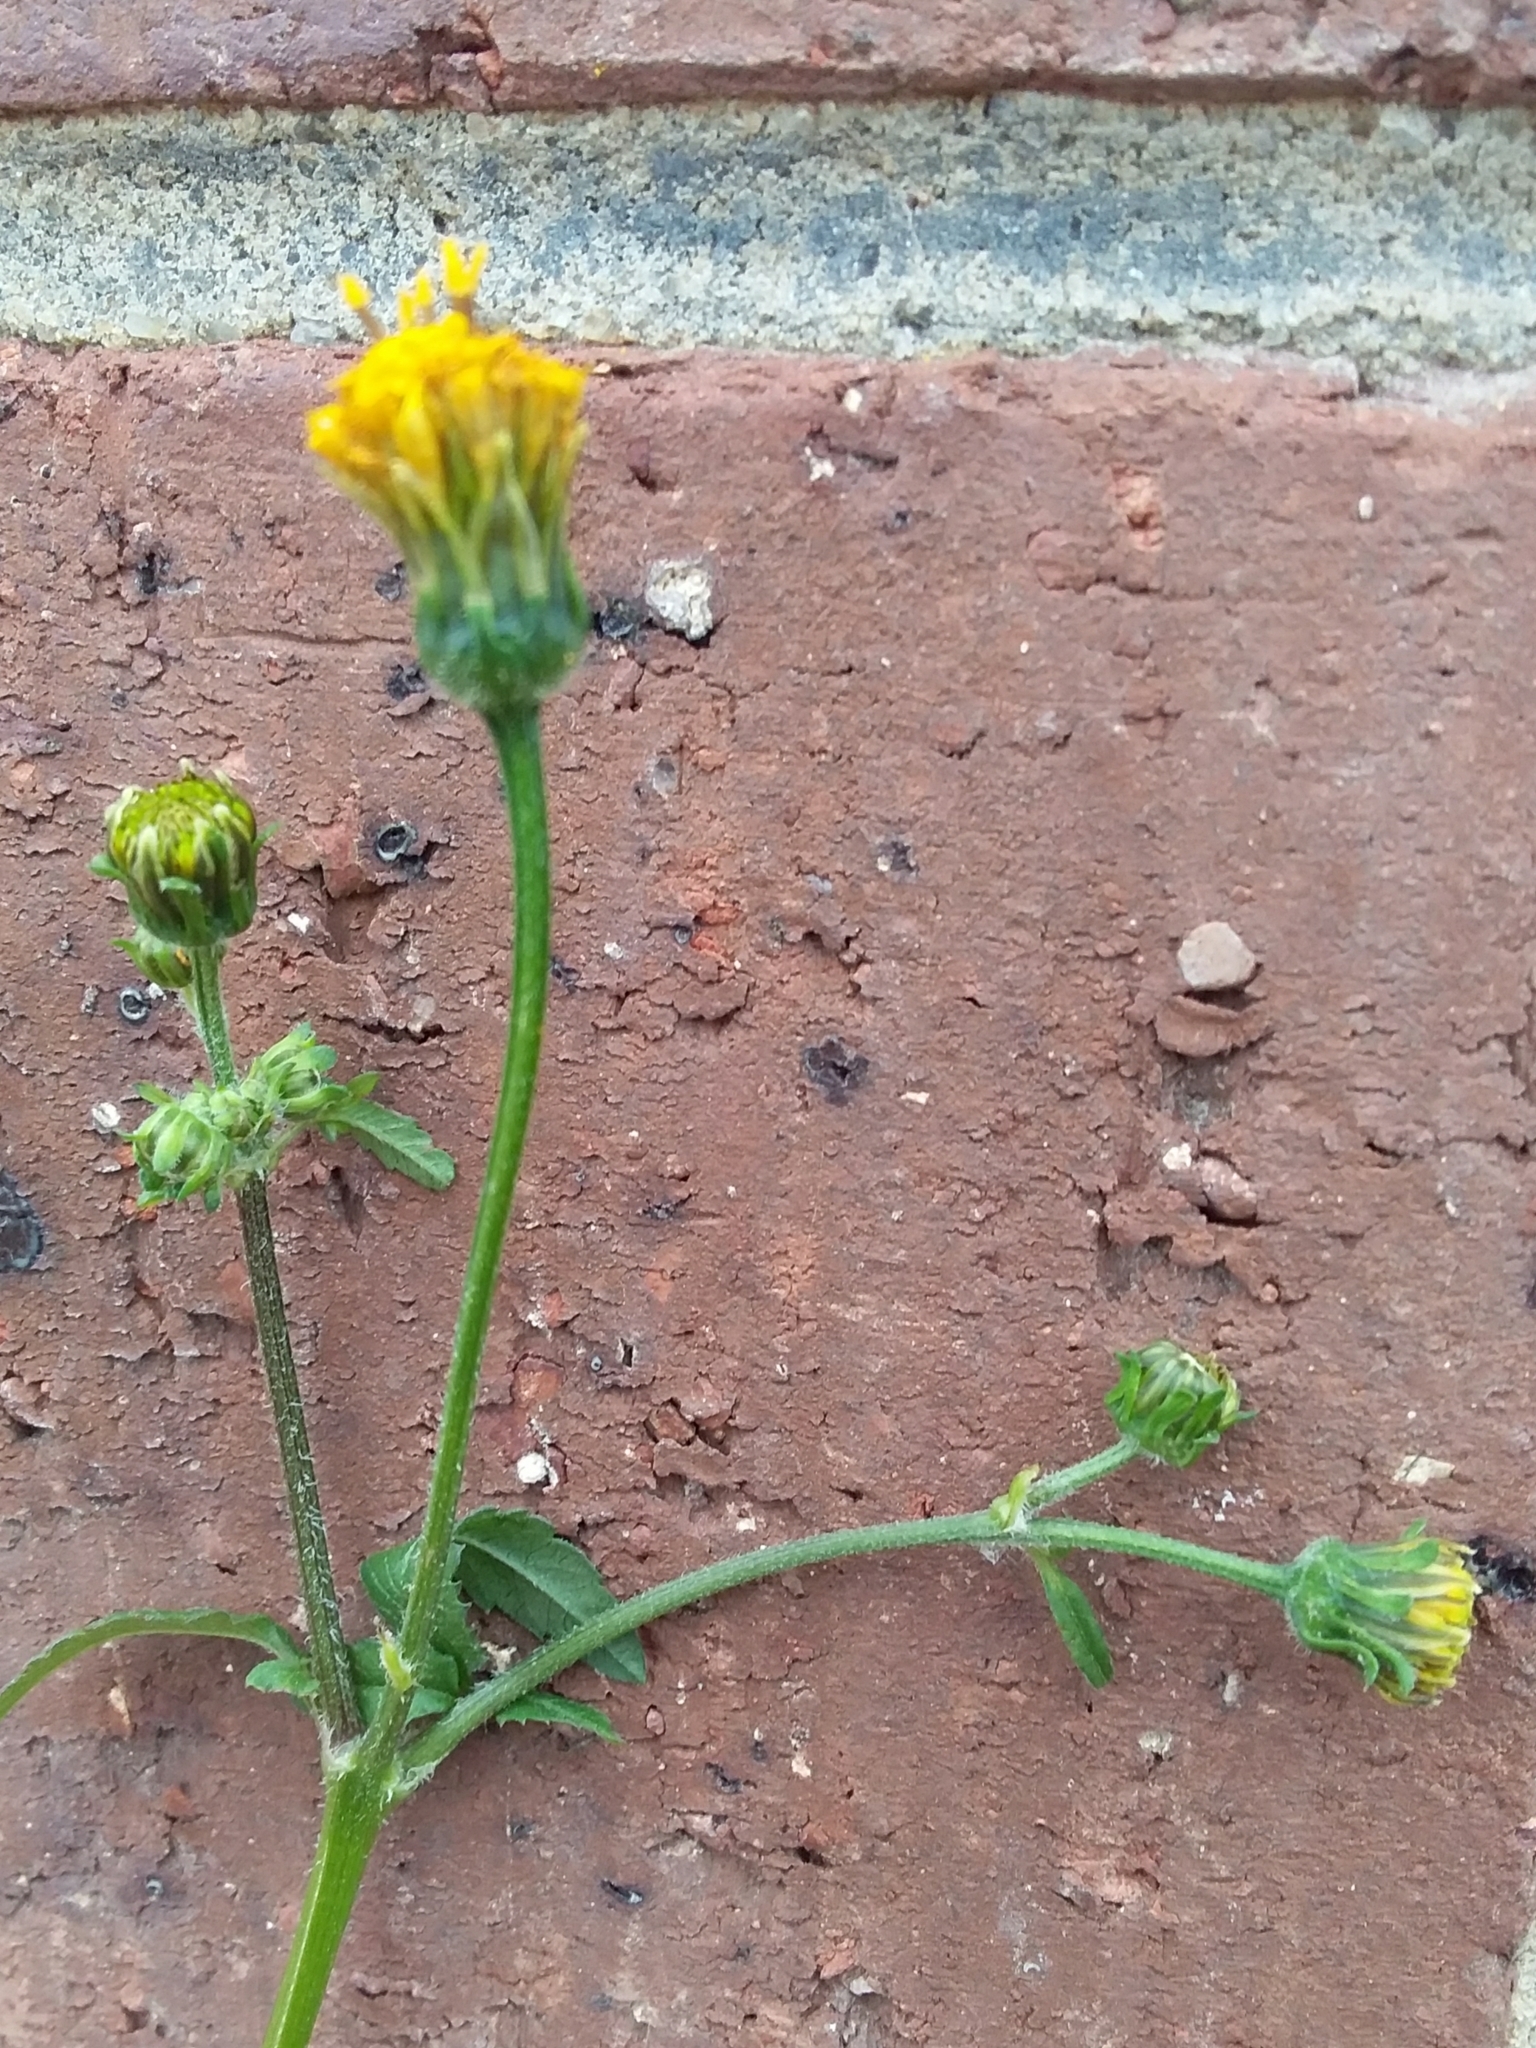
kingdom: Plantae
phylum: Tracheophyta
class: Magnoliopsida
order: Asterales
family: Asteraceae
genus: Bidens
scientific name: Bidens pilosa
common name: Black-jack
